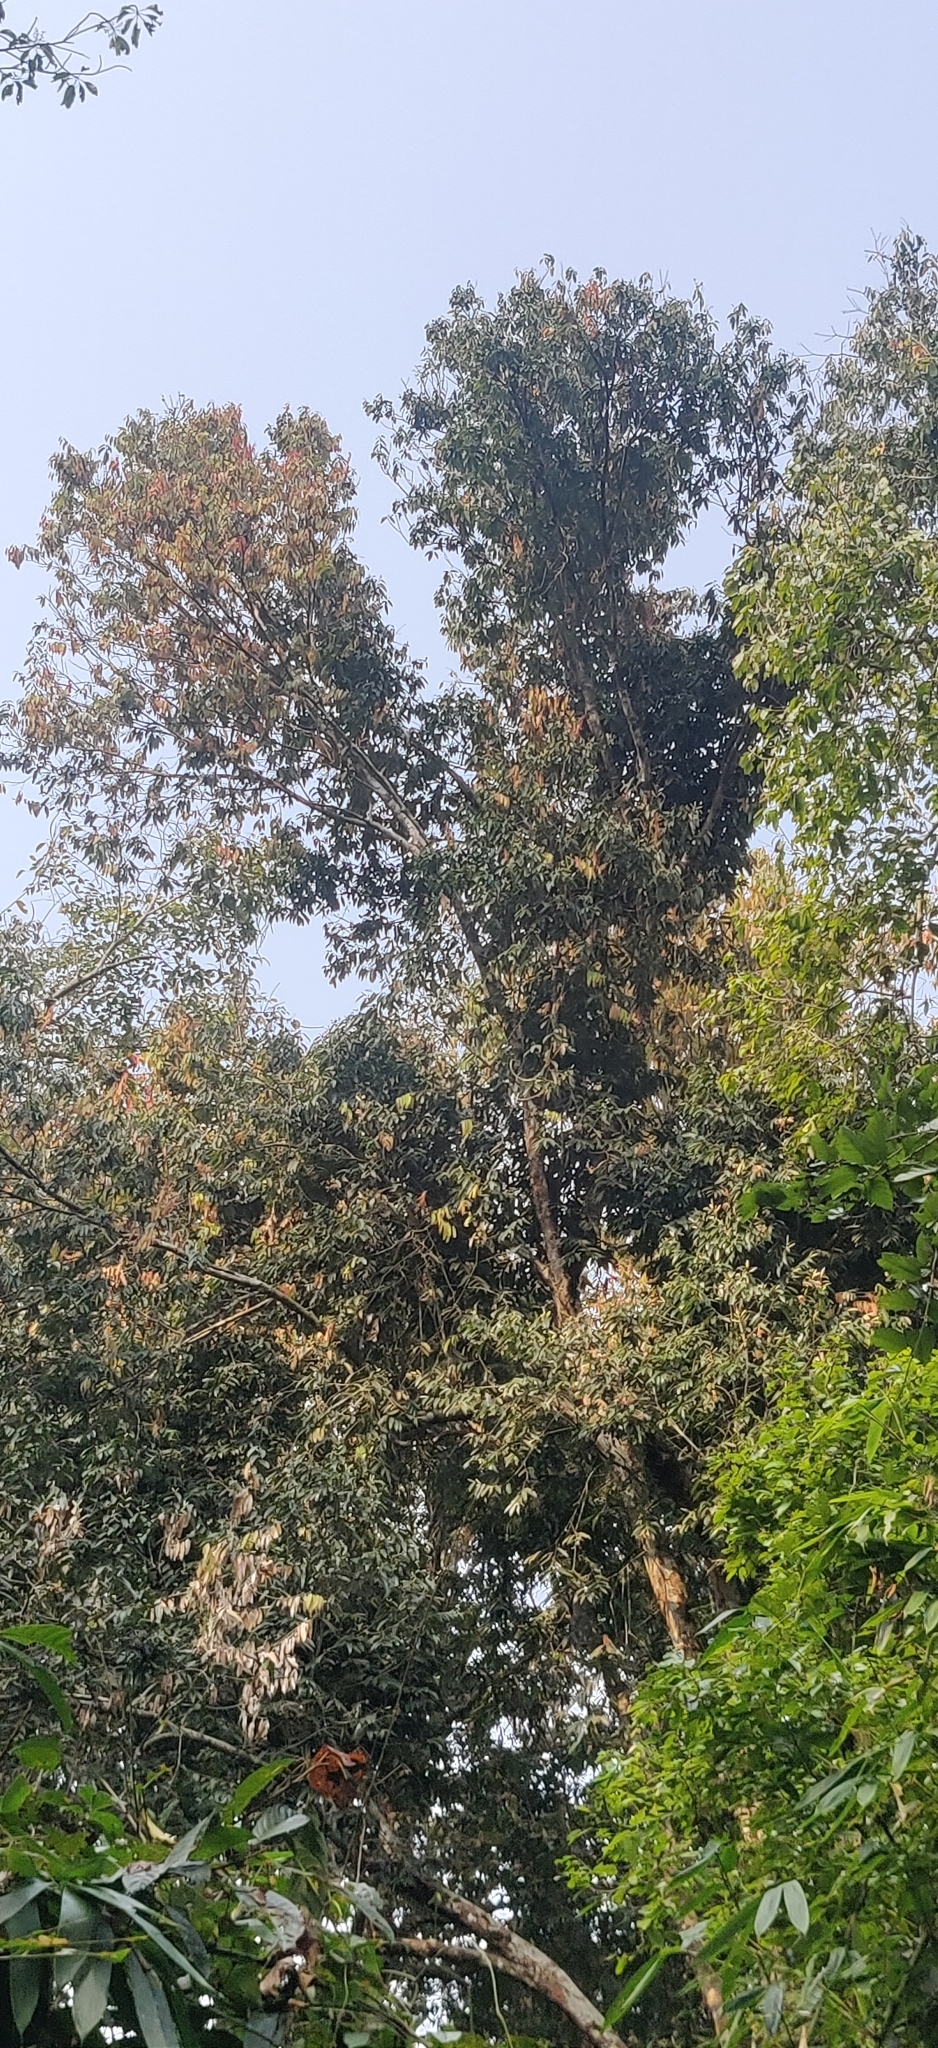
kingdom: Plantae
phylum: Tracheophyta
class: Magnoliopsida
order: Malpighiales
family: Calophyllaceae
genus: Mesua
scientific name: Mesua ferrea
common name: Mesua
